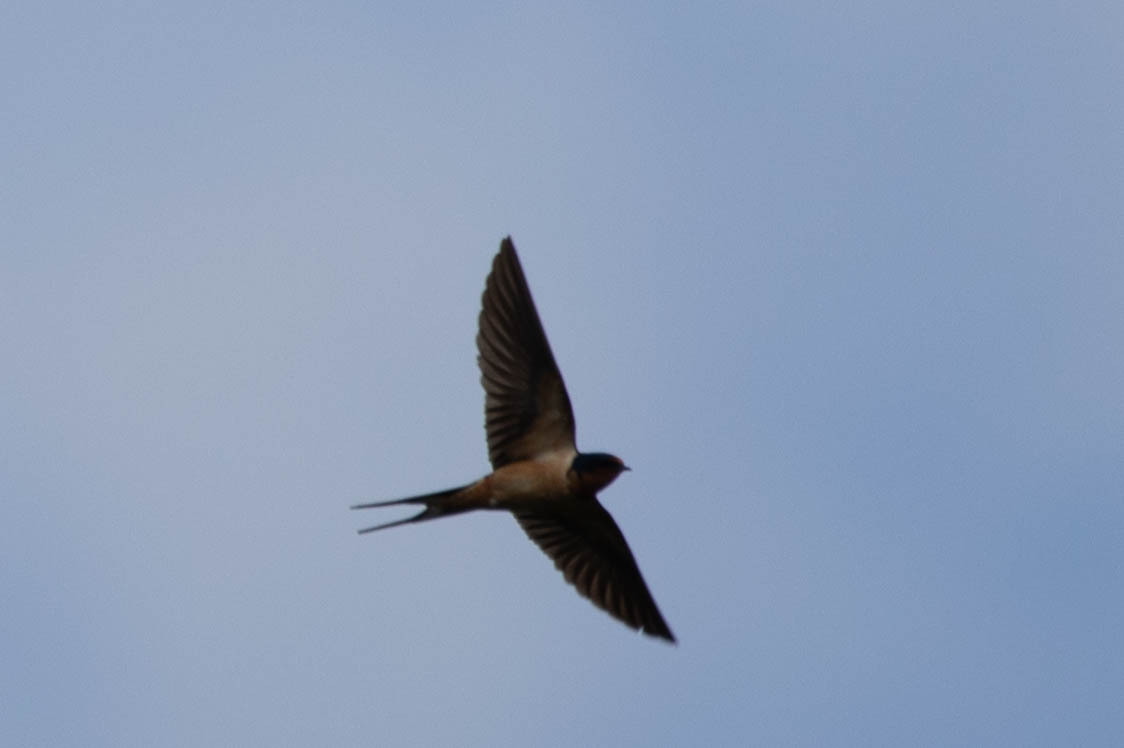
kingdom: Animalia
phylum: Chordata
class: Aves
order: Passeriformes
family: Hirundinidae
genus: Hirundo
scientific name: Hirundo rustica
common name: Barn swallow
